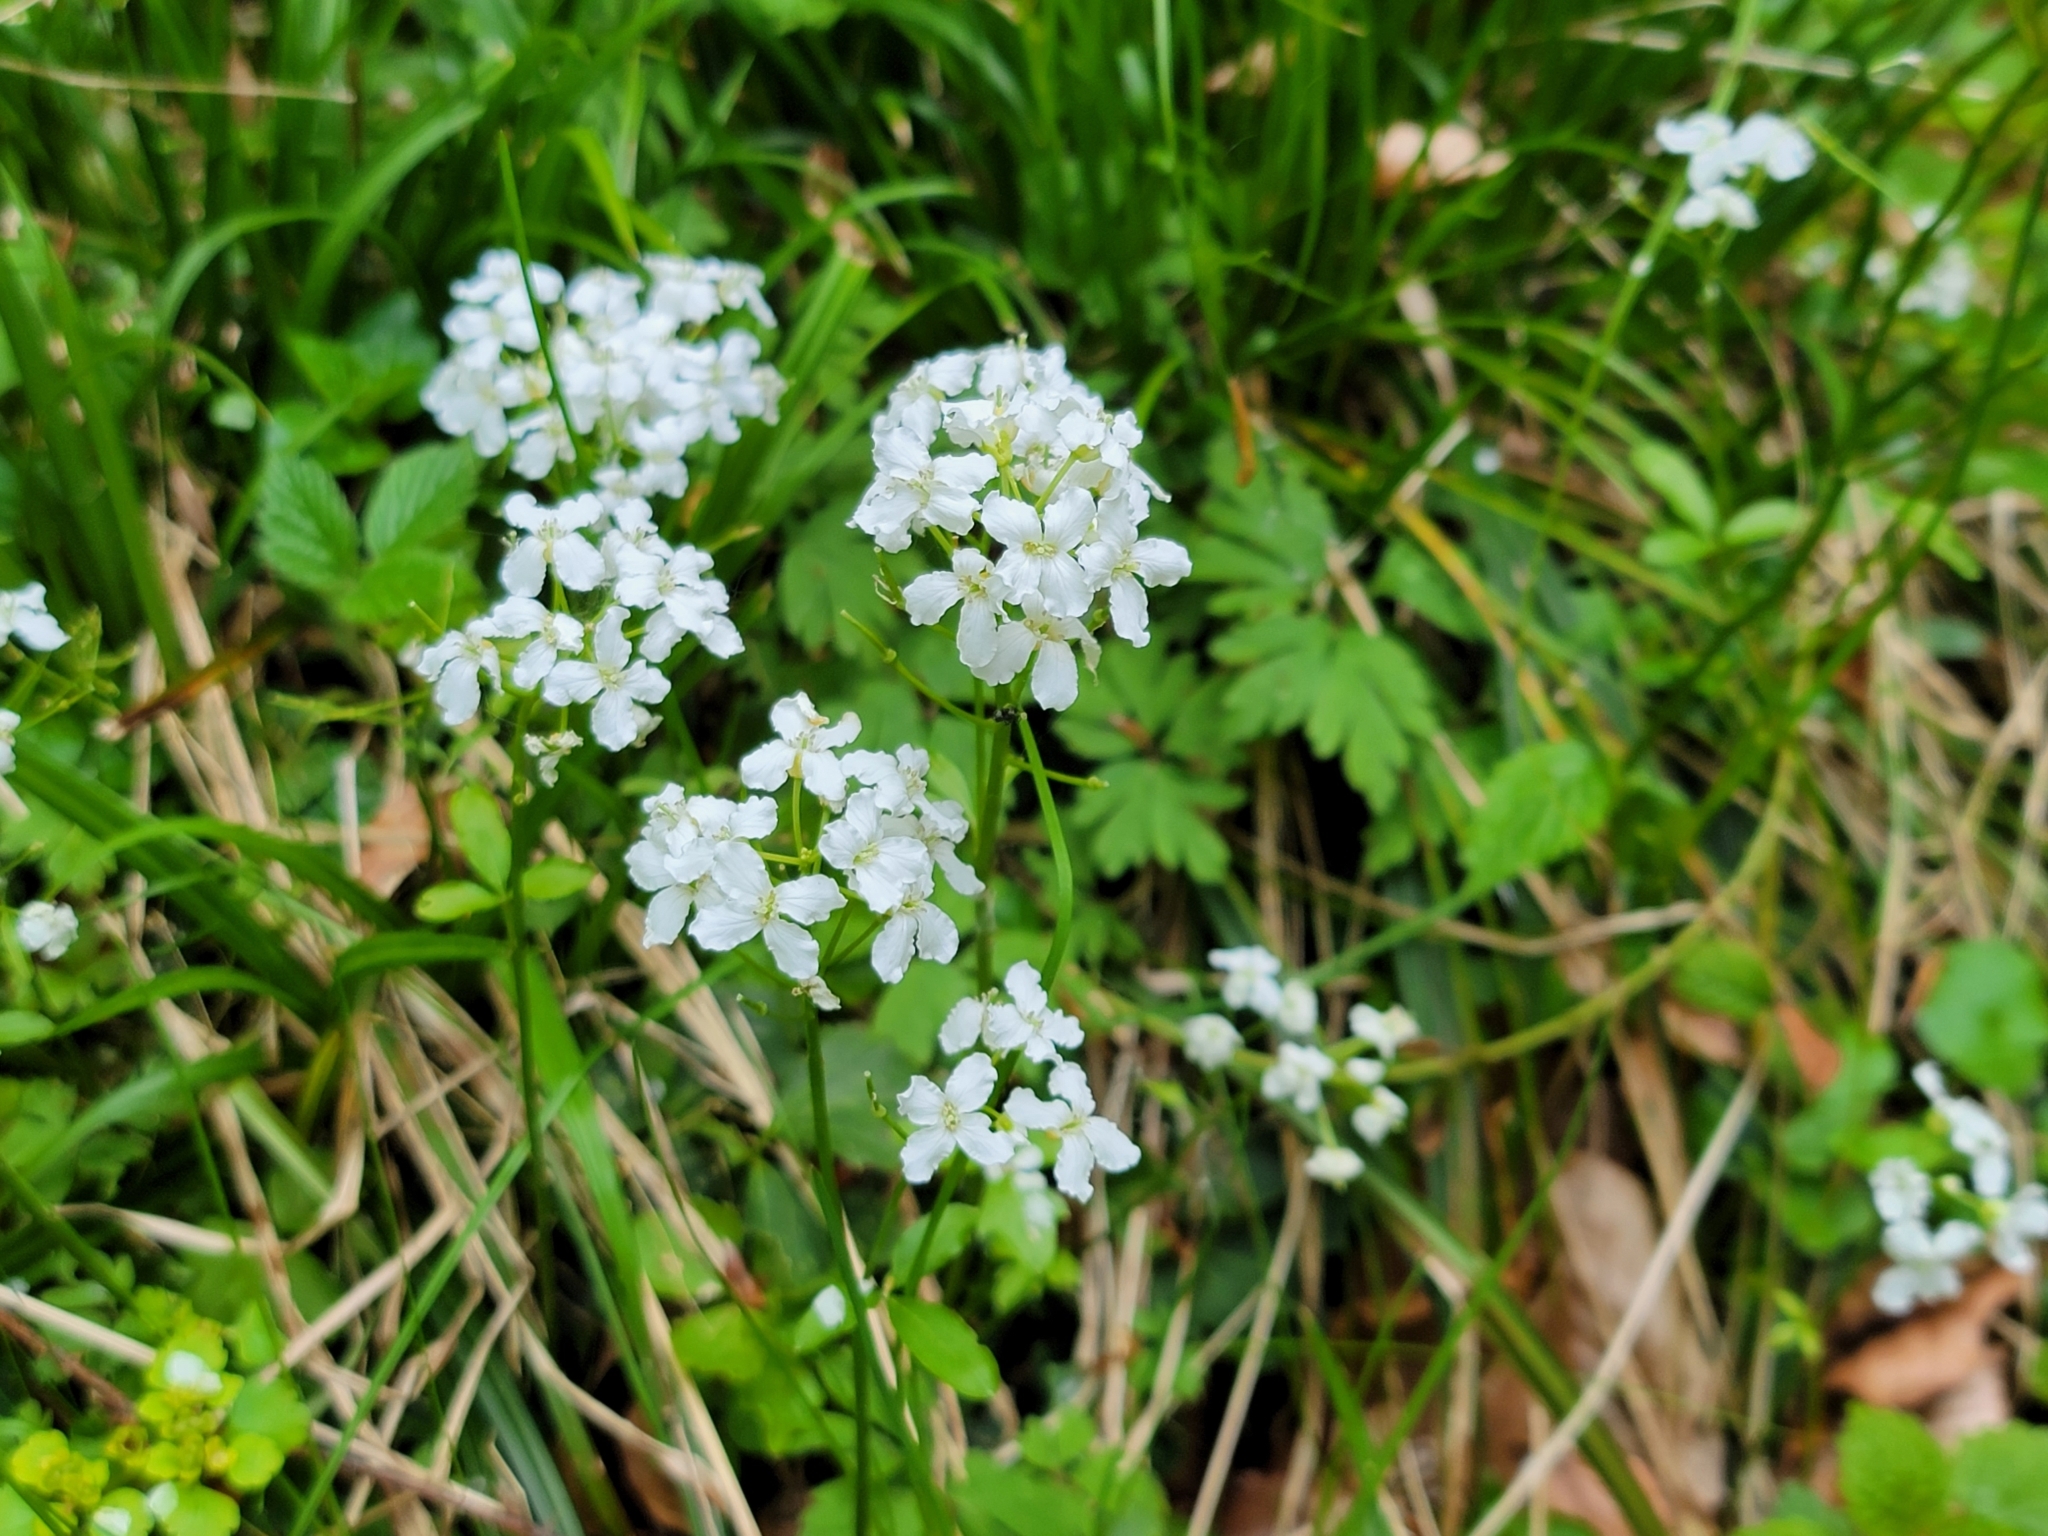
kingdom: Plantae
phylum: Tracheophyta
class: Magnoliopsida
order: Brassicales
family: Brassicaceae
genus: Cardamine
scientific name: Cardamine trifolia
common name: Trefoil cress
